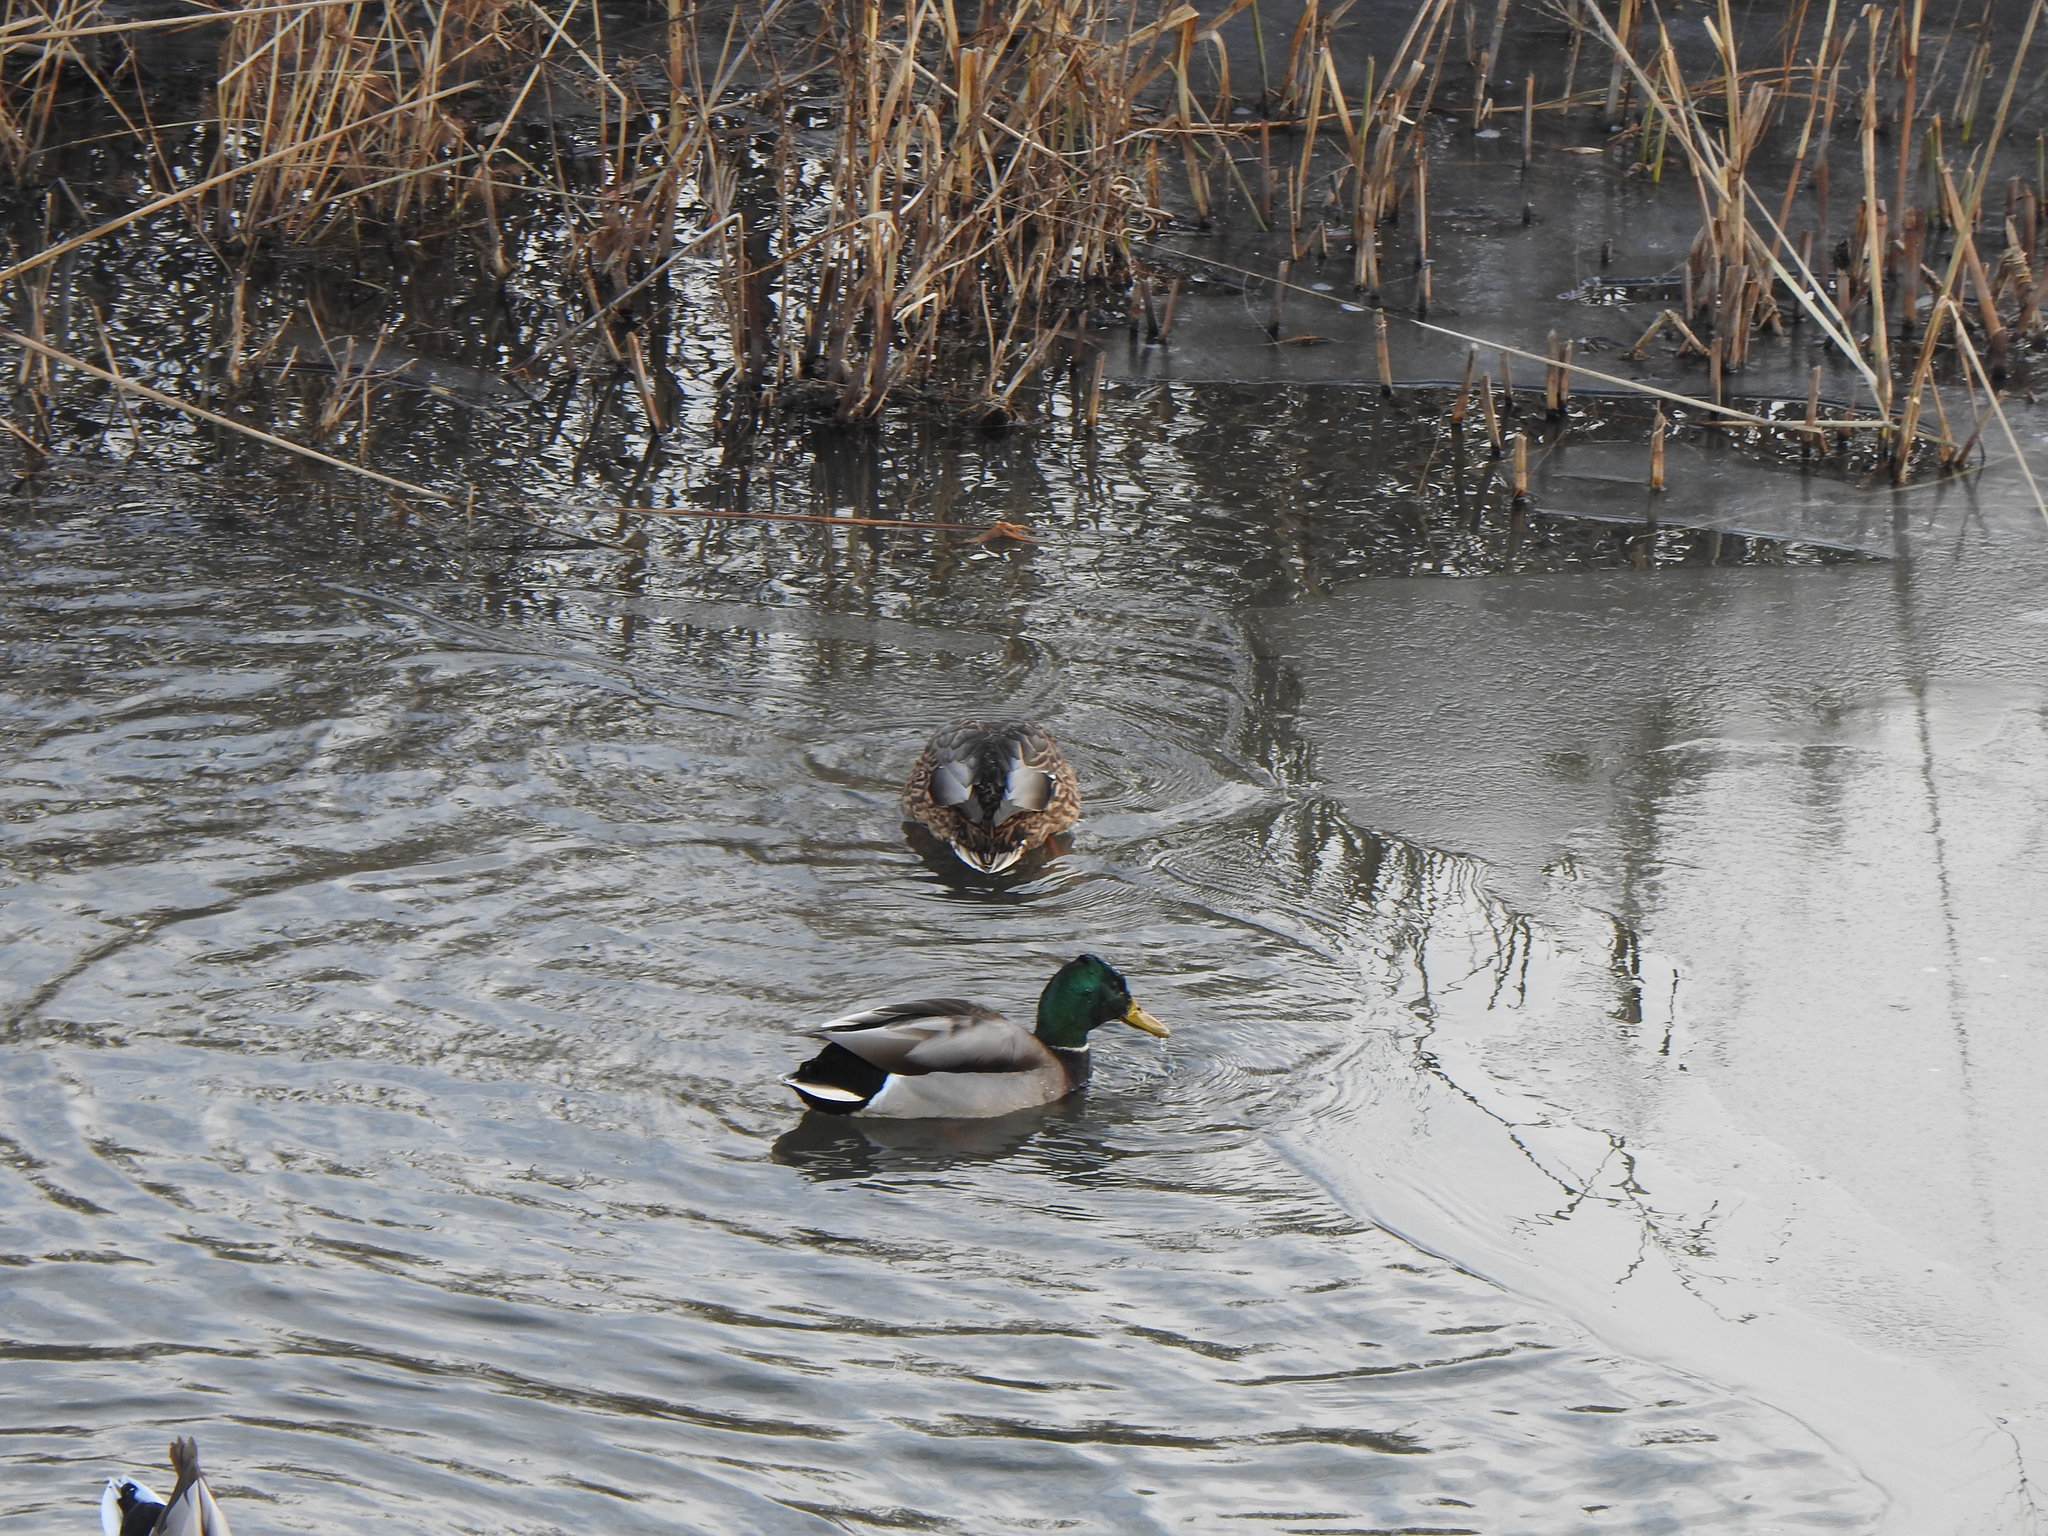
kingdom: Animalia
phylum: Chordata
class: Aves
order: Anseriformes
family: Anatidae
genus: Anas
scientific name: Anas platyrhynchos
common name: Mallard
